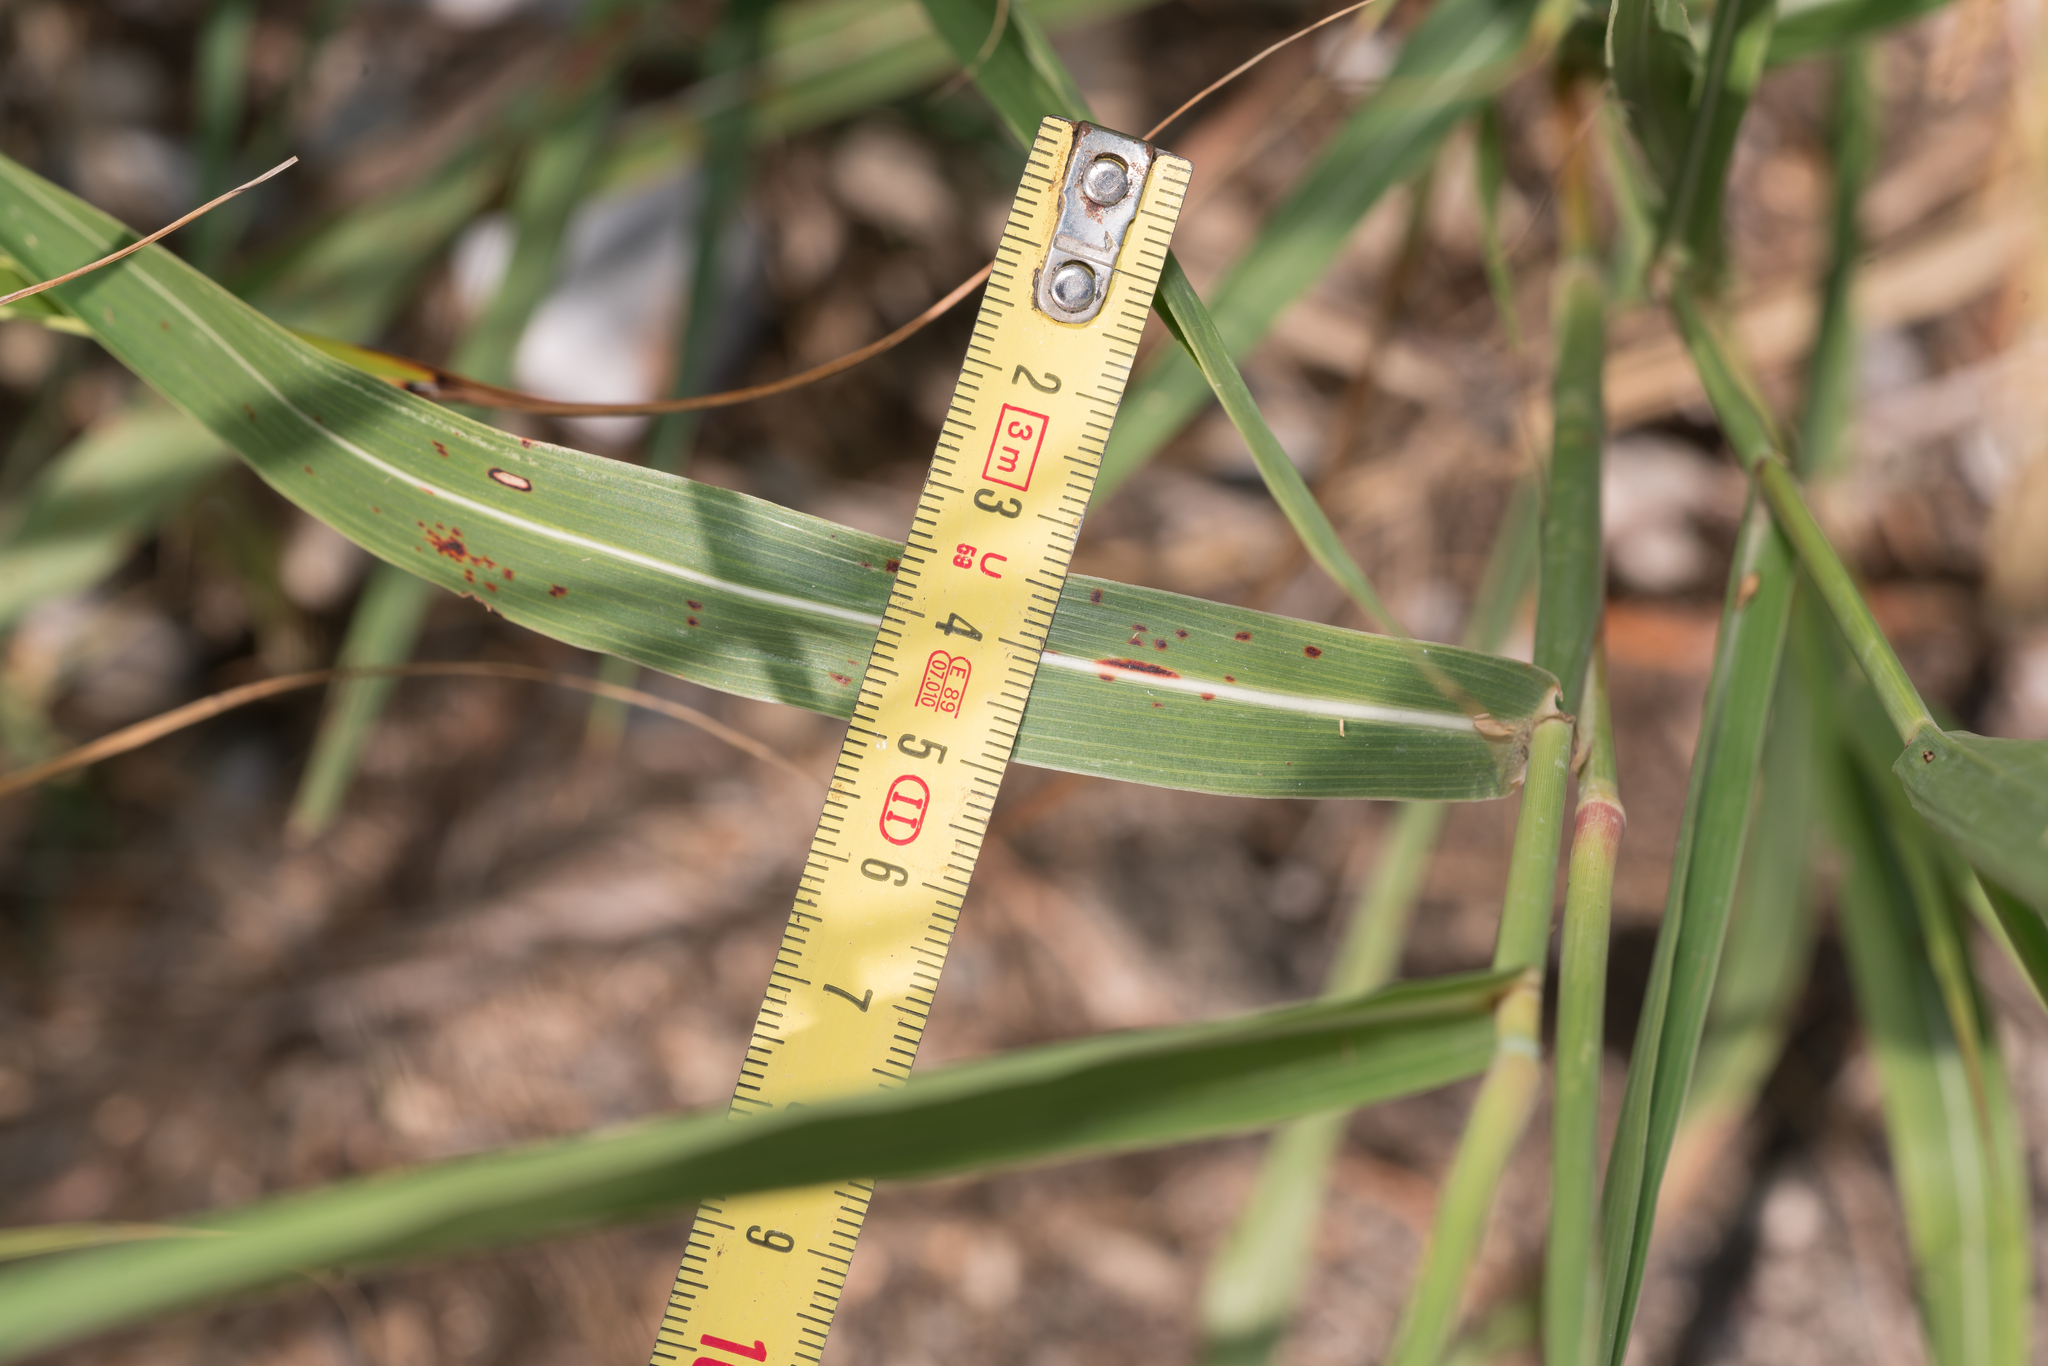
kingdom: Plantae
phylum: Tracheophyta
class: Liliopsida
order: Poales
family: Poaceae
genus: Sorghum
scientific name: Sorghum halepense
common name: Johnson-grass
